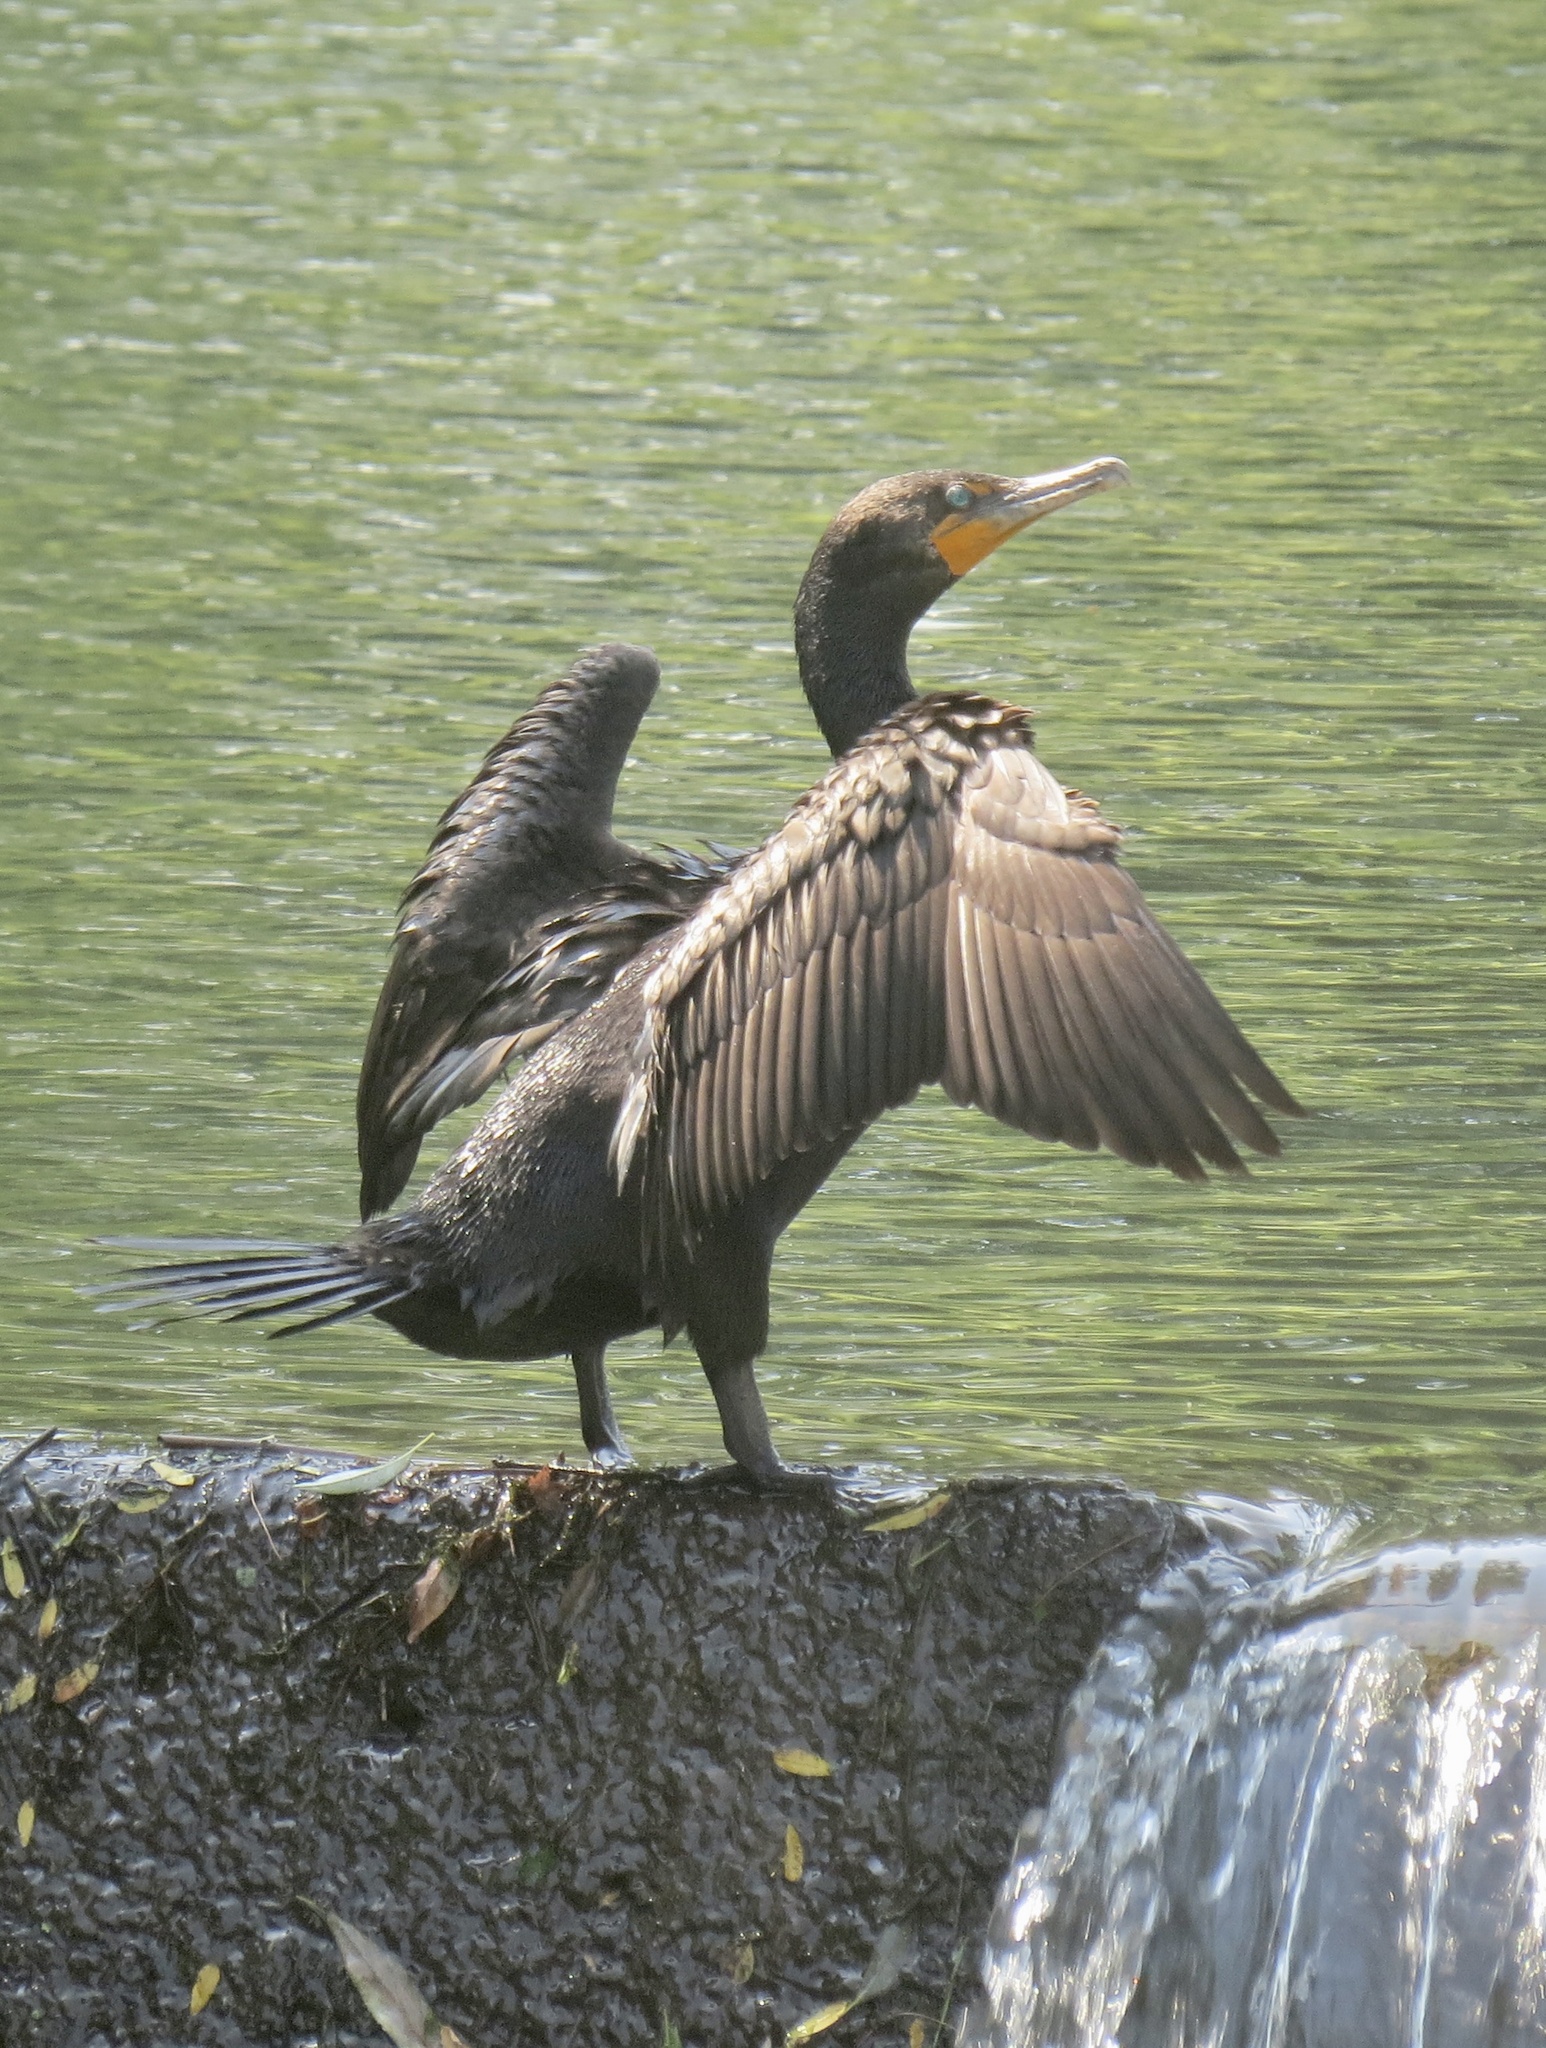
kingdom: Animalia
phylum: Chordata
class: Aves
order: Suliformes
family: Phalacrocoracidae
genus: Phalacrocorax
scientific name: Phalacrocorax auritus
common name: Double-crested cormorant
